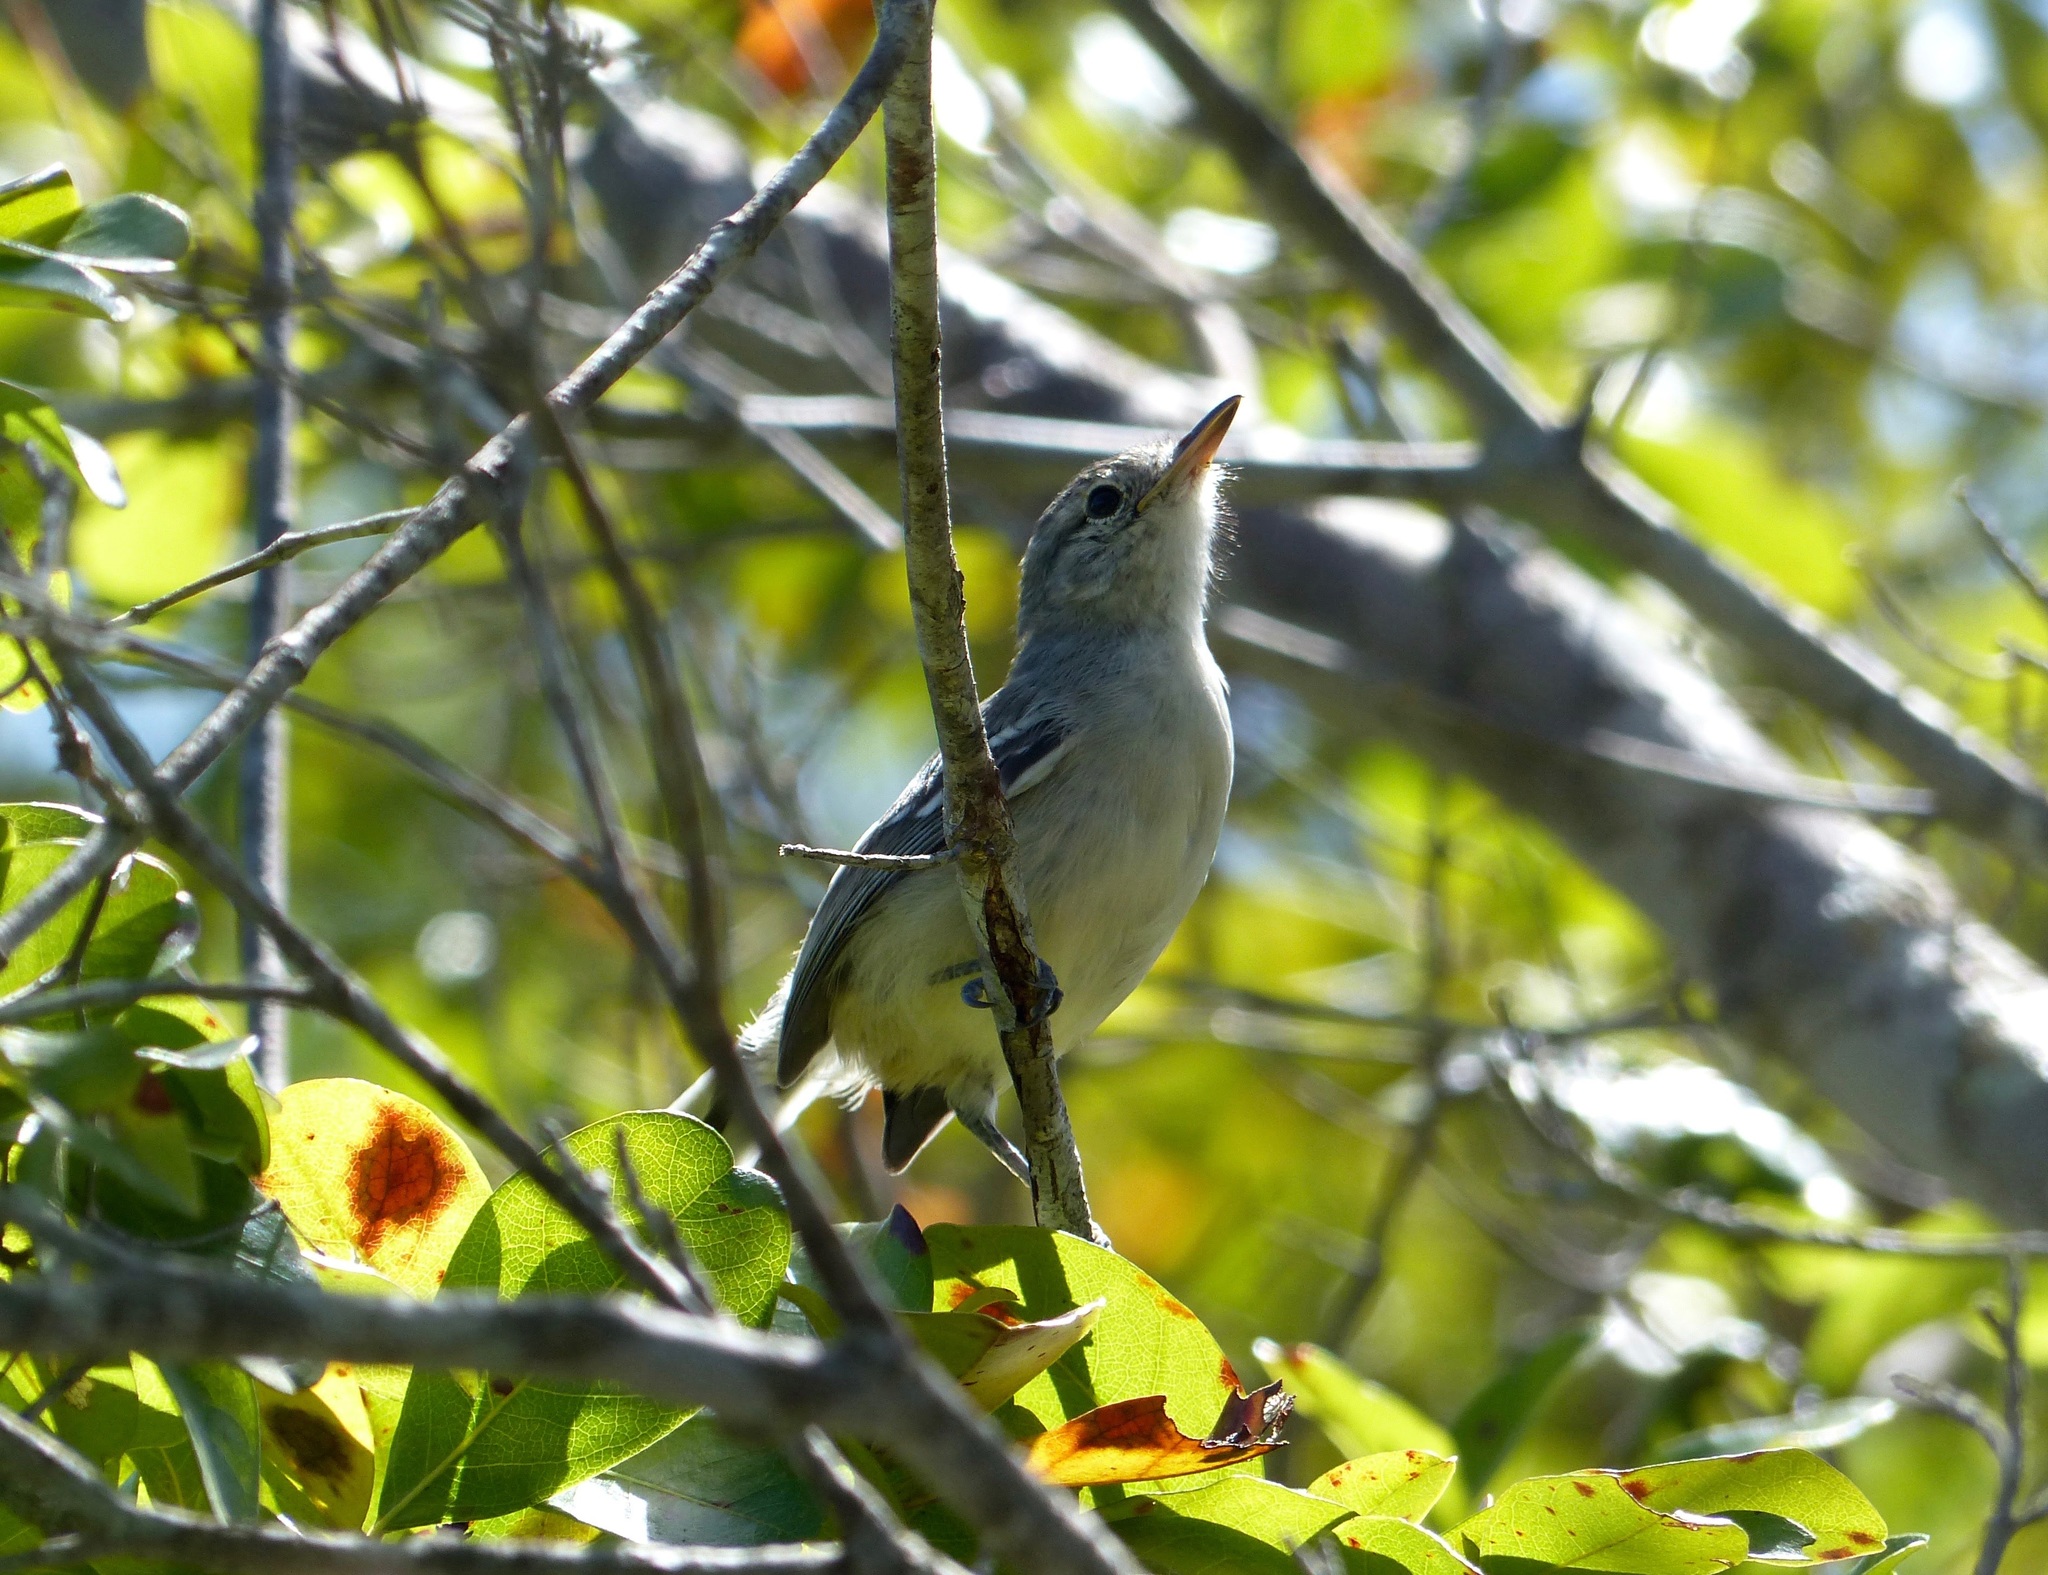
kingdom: Animalia
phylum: Chordata
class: Aves
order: Passeriformes
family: Thamnophilidae
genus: Herpsilochmus
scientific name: Herpsilochmus sellowi
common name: Caatinga antwren
